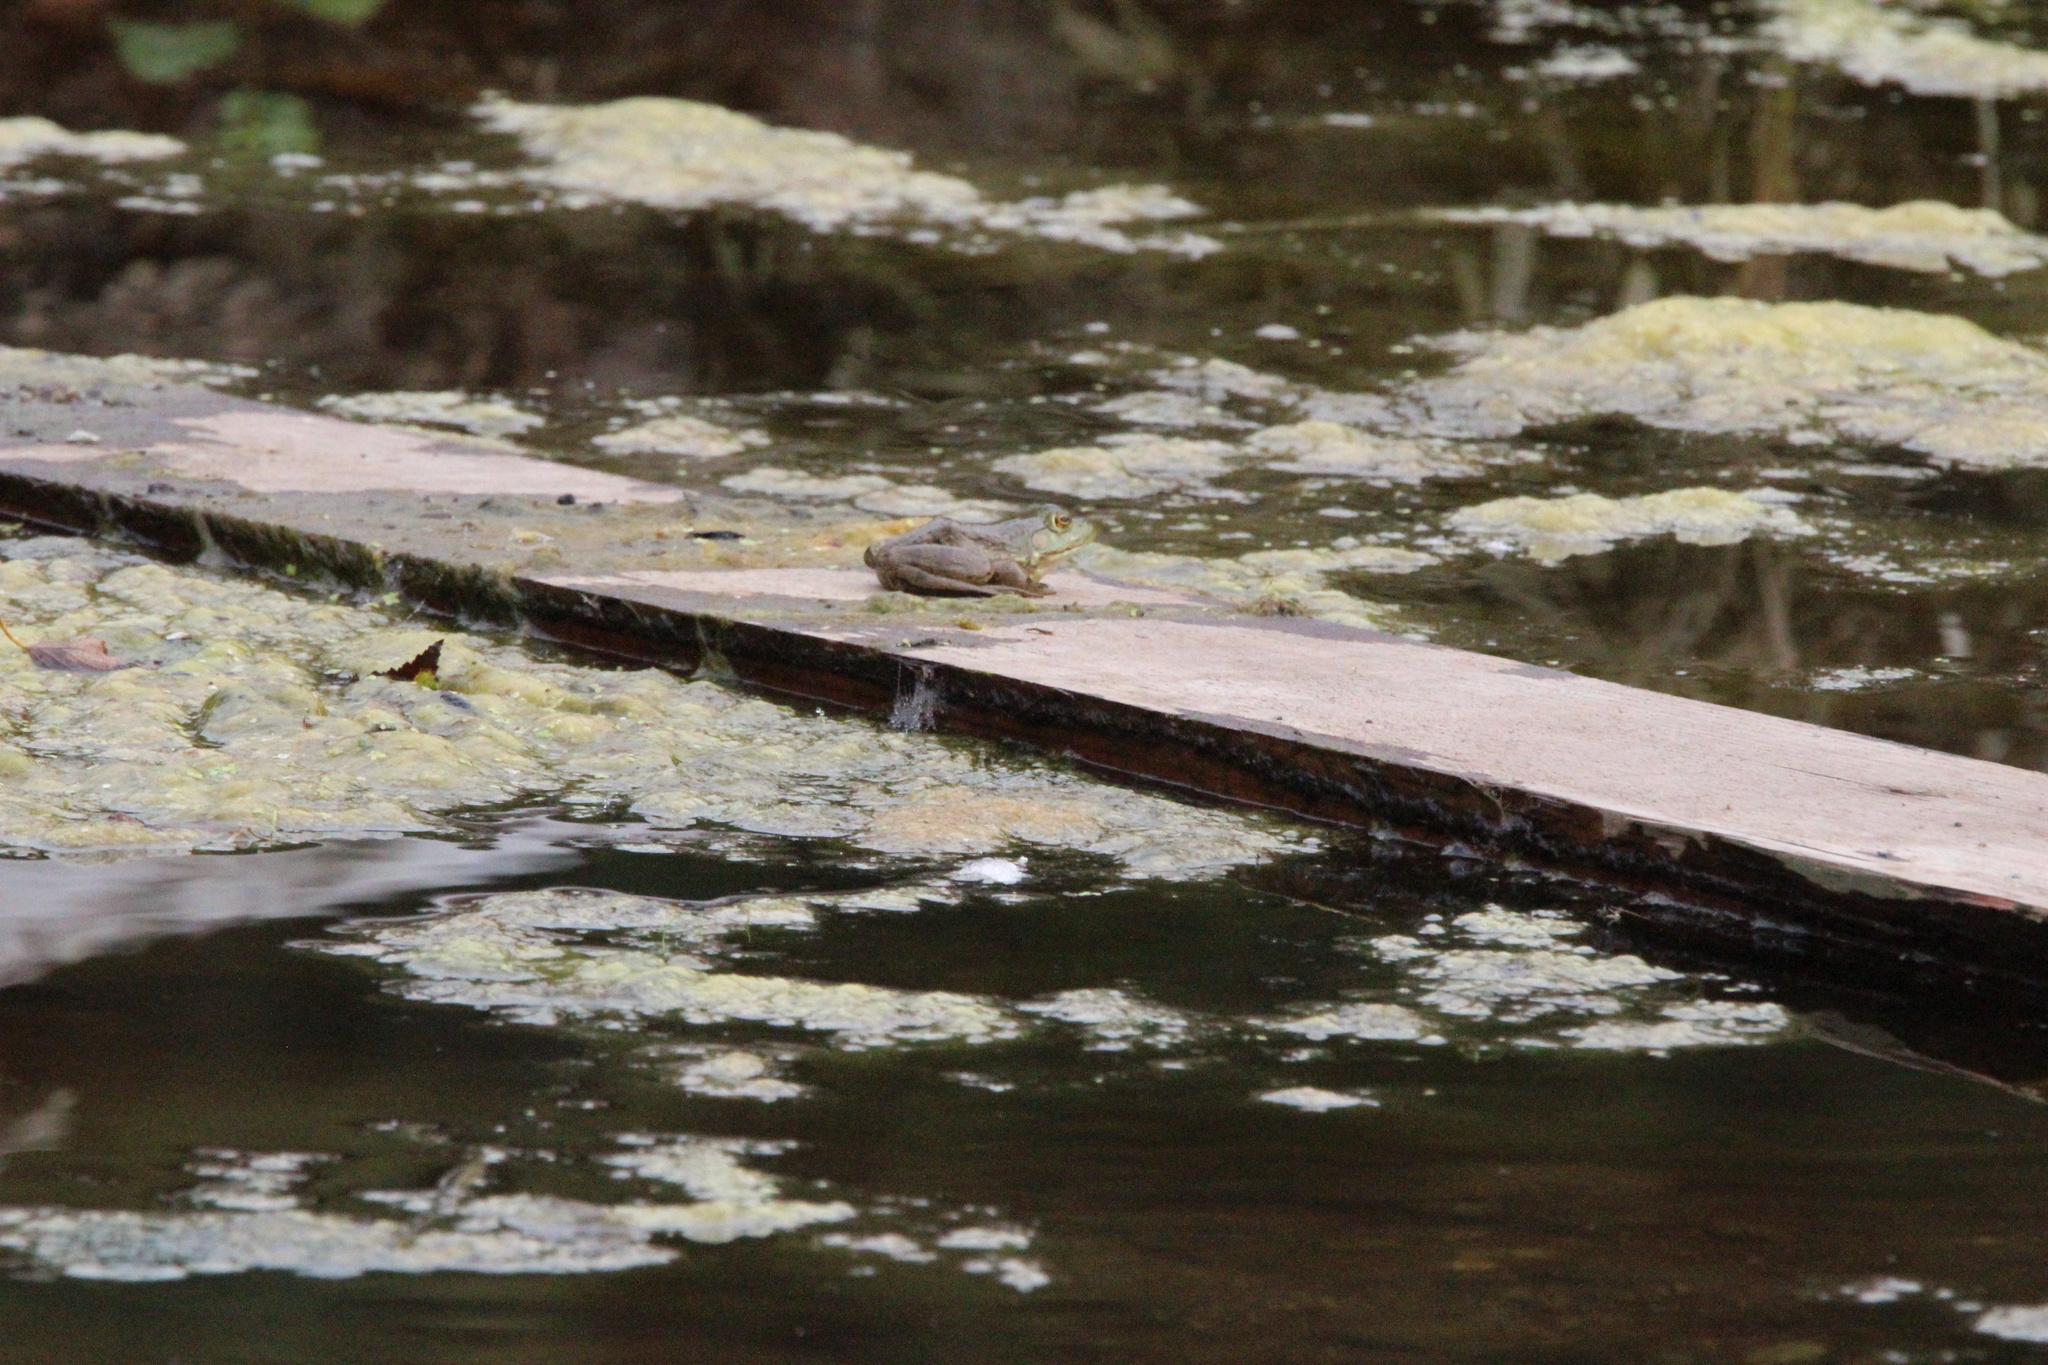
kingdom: Animalia
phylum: Chordata
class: Amphibia
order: Anura
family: Ranidae
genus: Lithobates
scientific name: Lithobates catesbeianus
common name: American bullfrog
